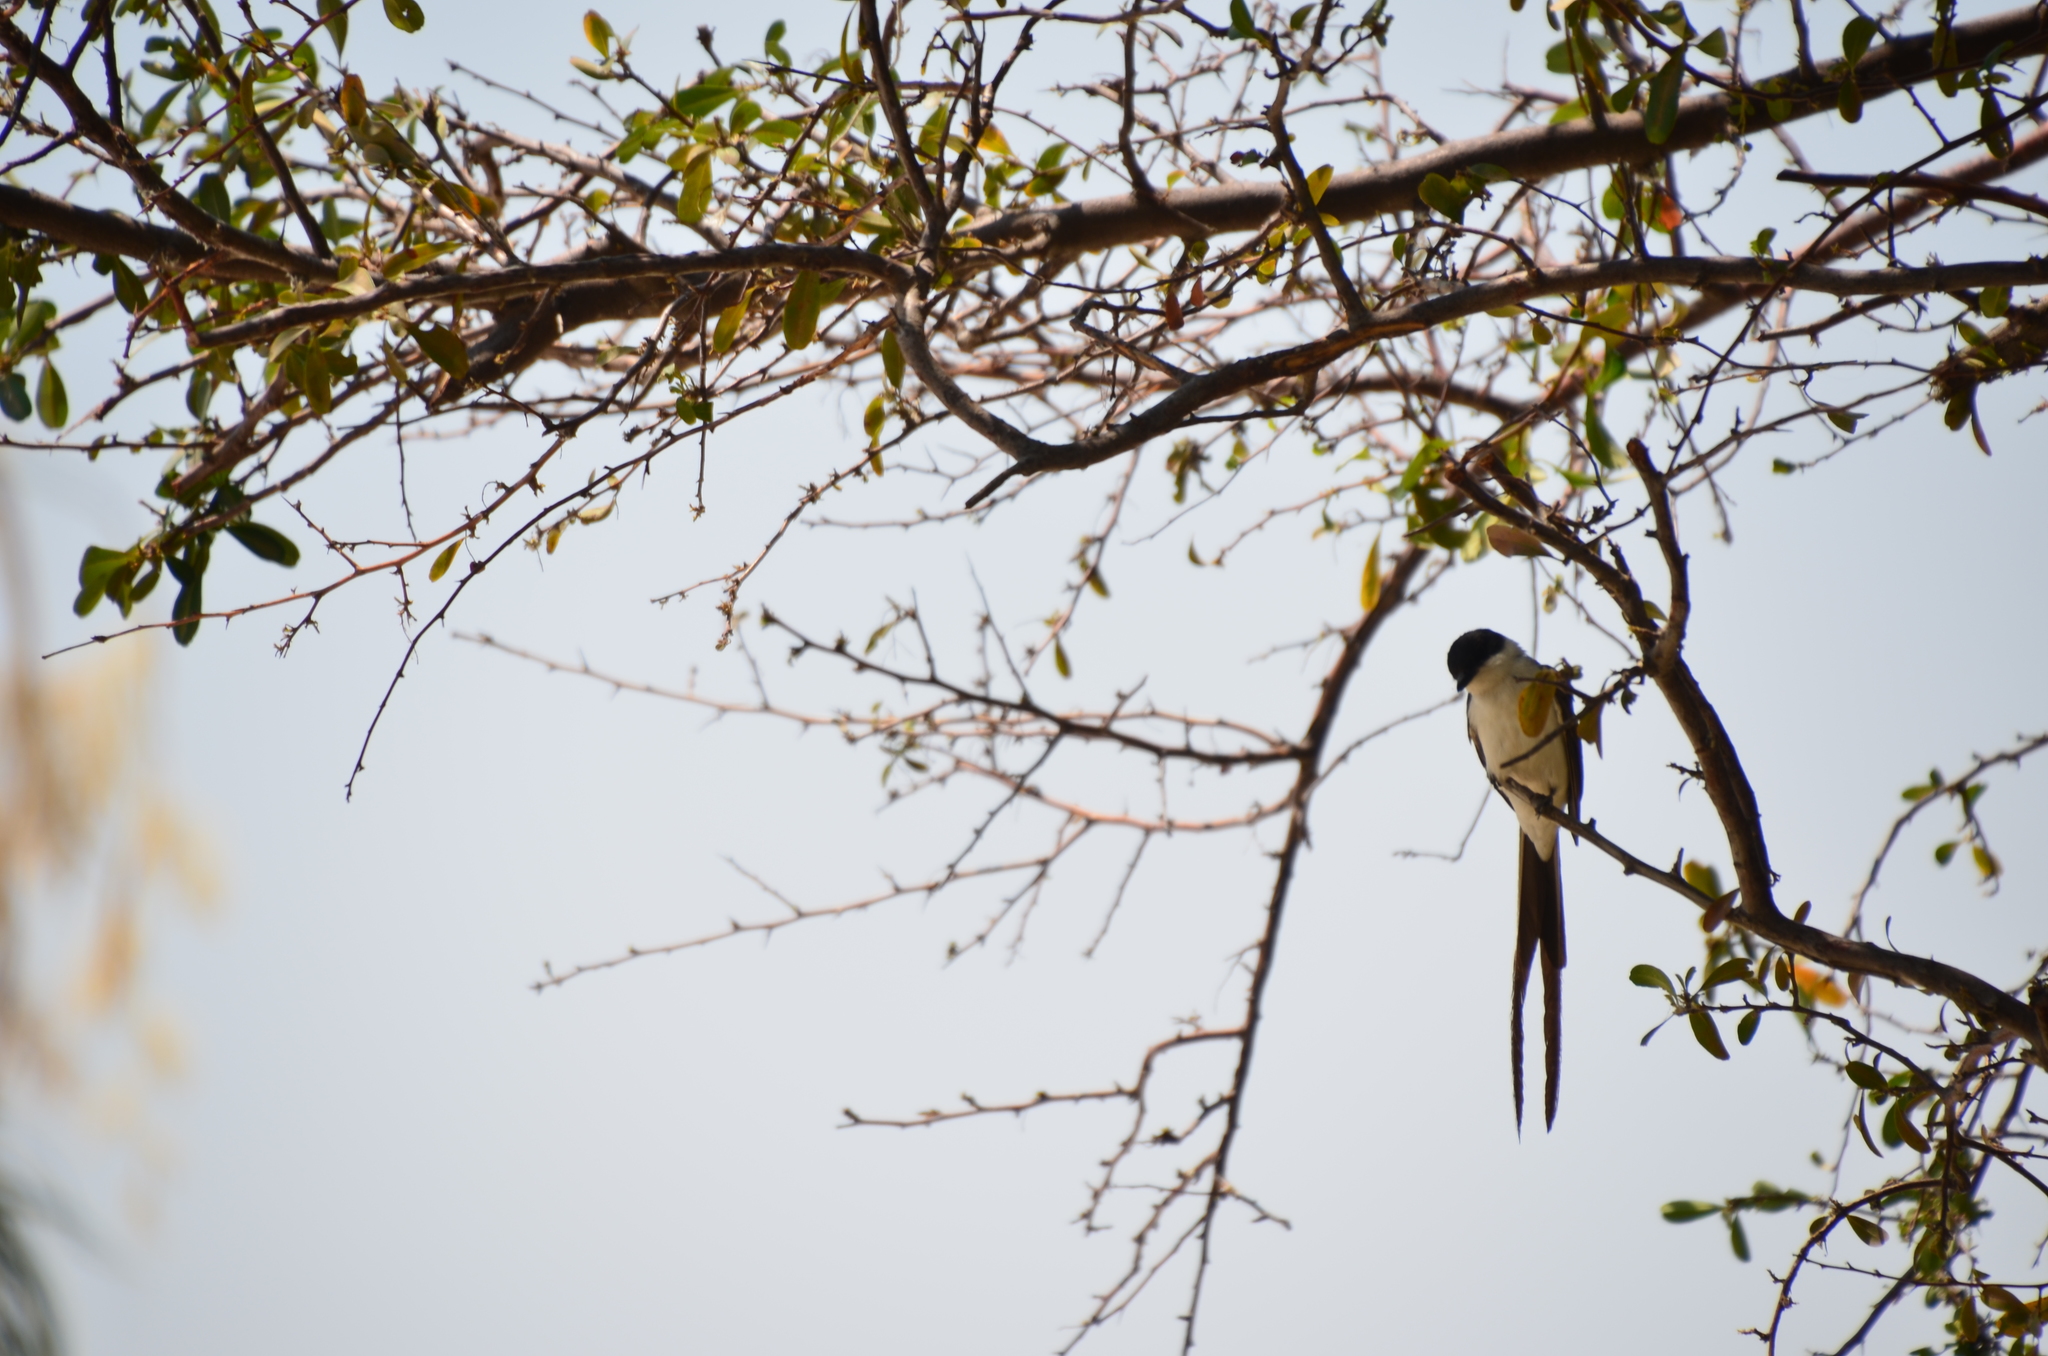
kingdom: Animalia
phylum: Chordata
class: Aves
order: Passeriformes
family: Tyrannidae
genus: Tyrannus
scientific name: Tyrannus savana
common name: Fork-tailed flycatcher
